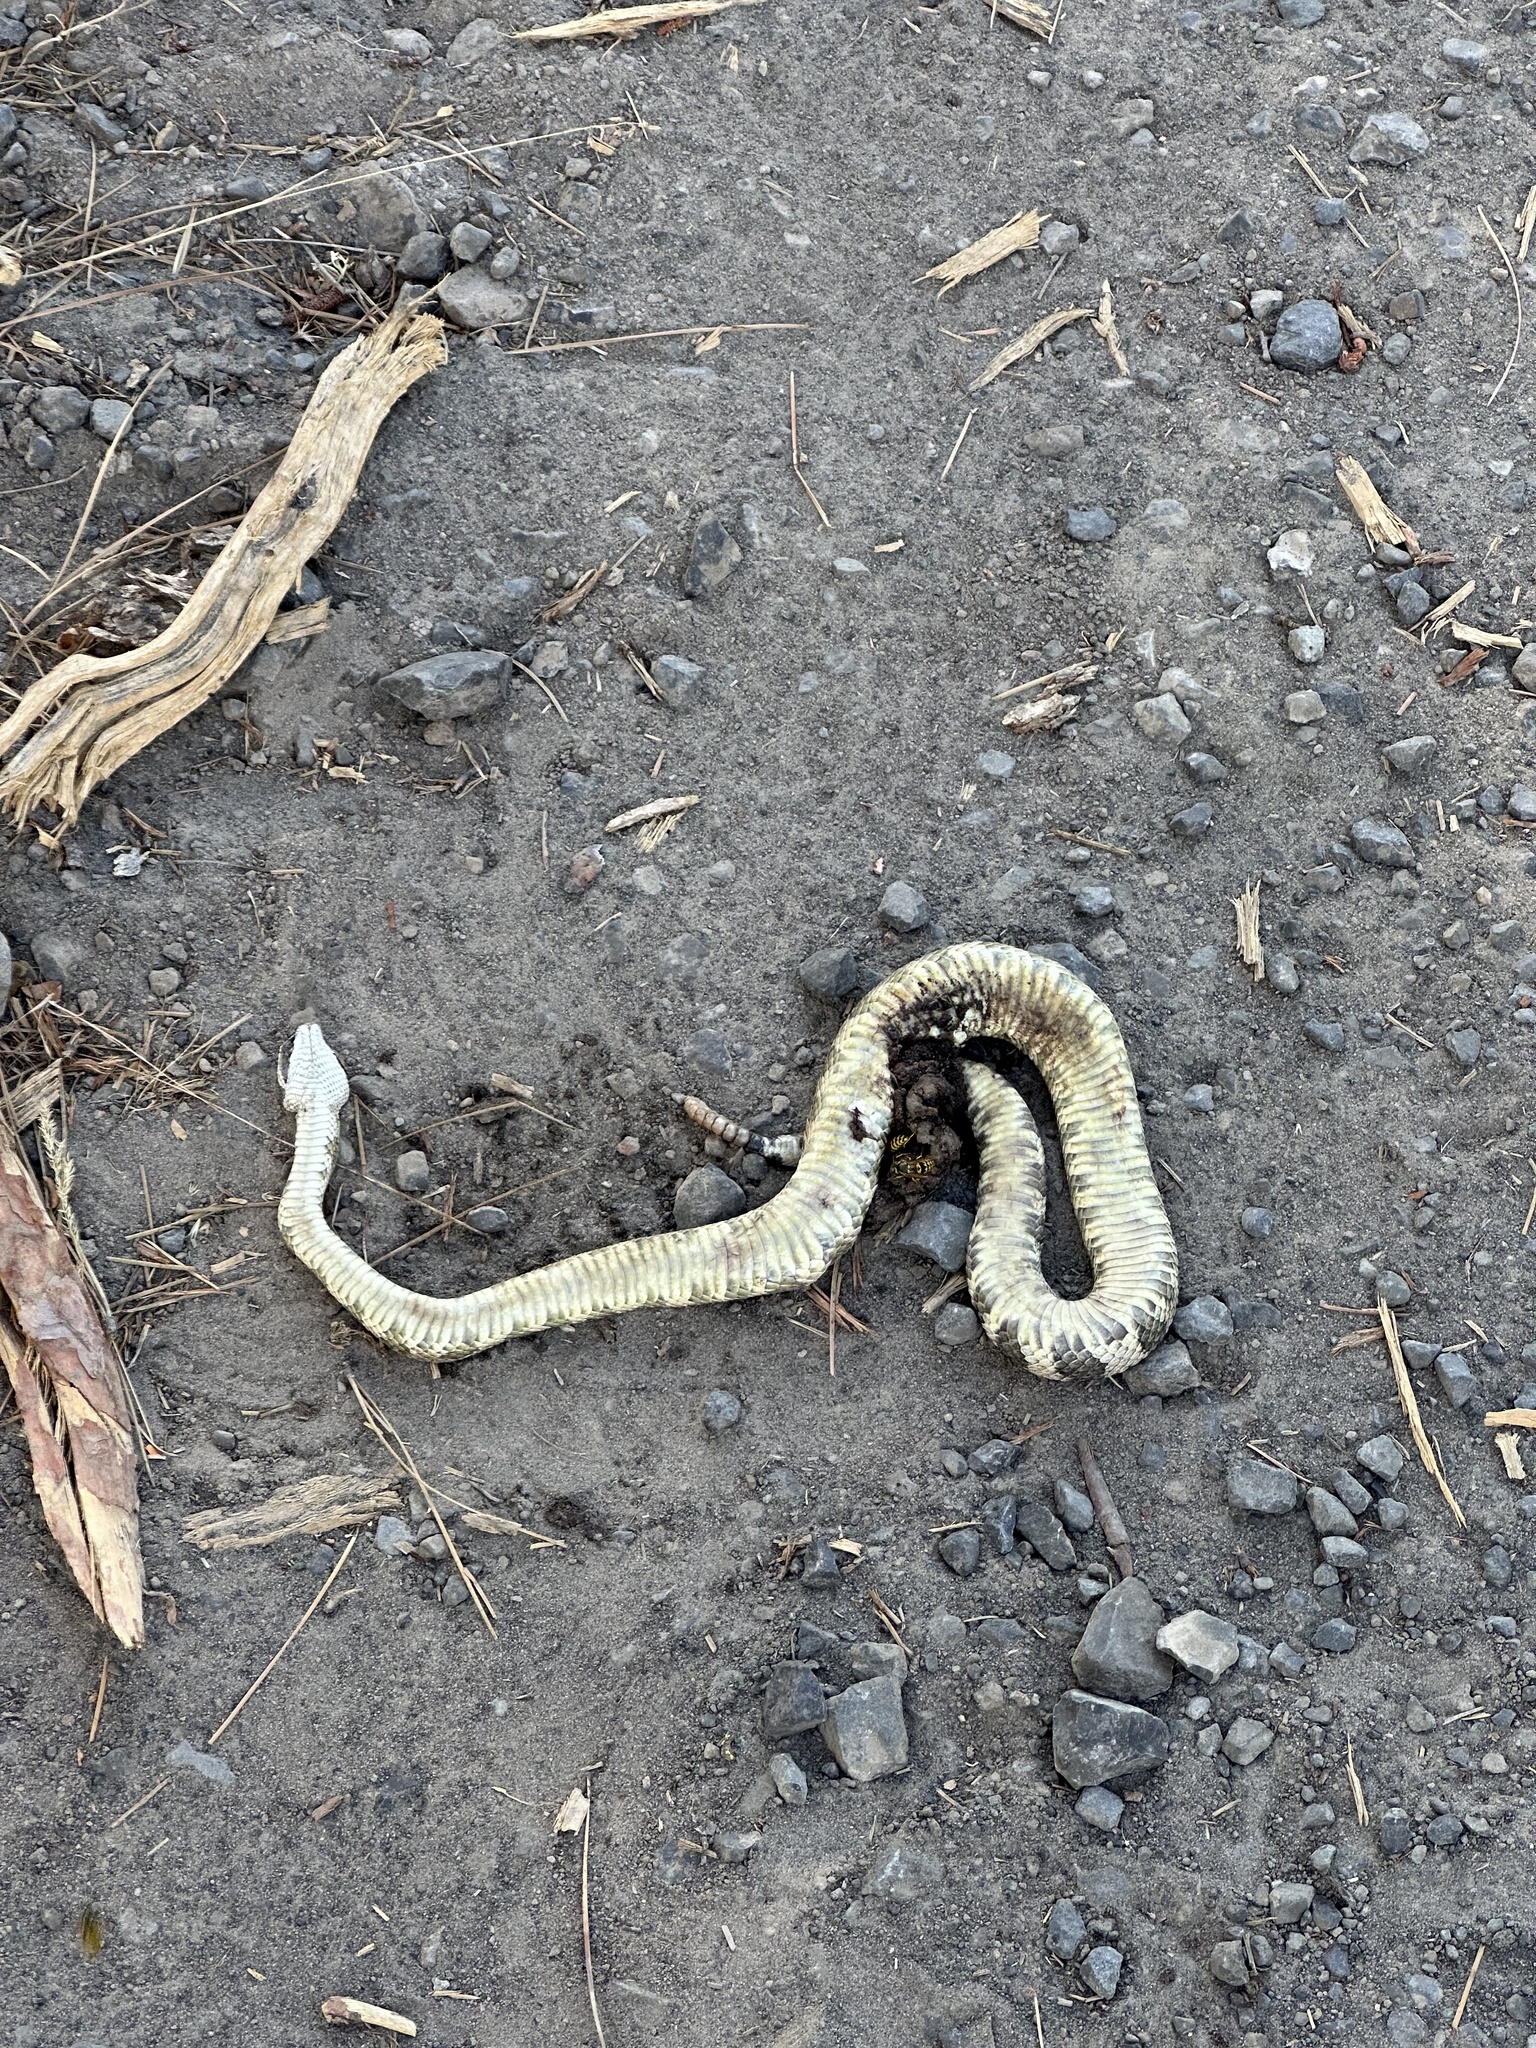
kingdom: Animalia
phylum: Chordata
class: Squamata
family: Viperidae
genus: Crotalus
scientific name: Crotalus oreganus
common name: Abyssus
